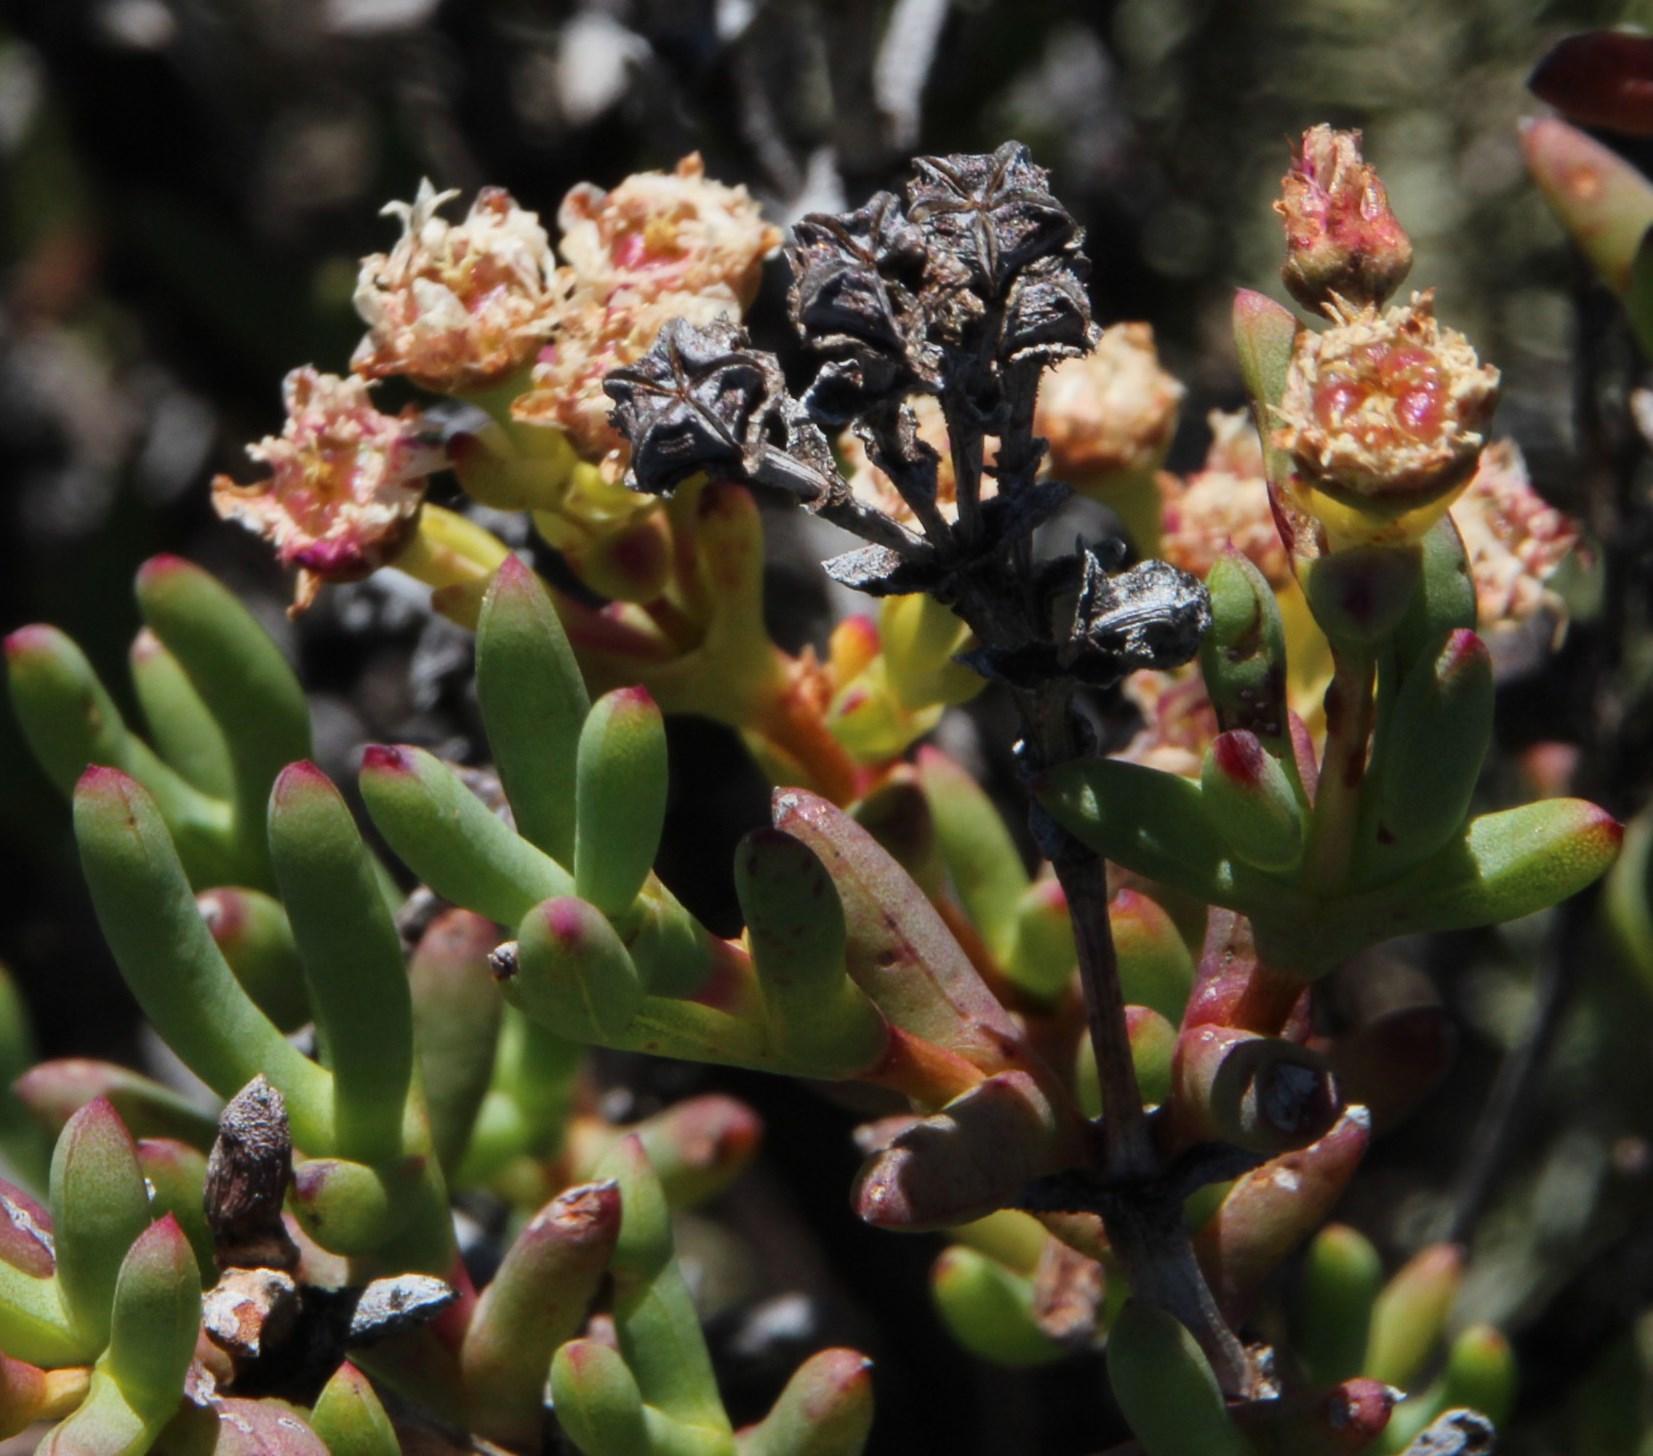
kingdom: Plantae
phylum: Tracheophyta
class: Magnoliopsida
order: Caryophyllales
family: Aizoaceae
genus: Ruschia
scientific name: Ruschia pungens
